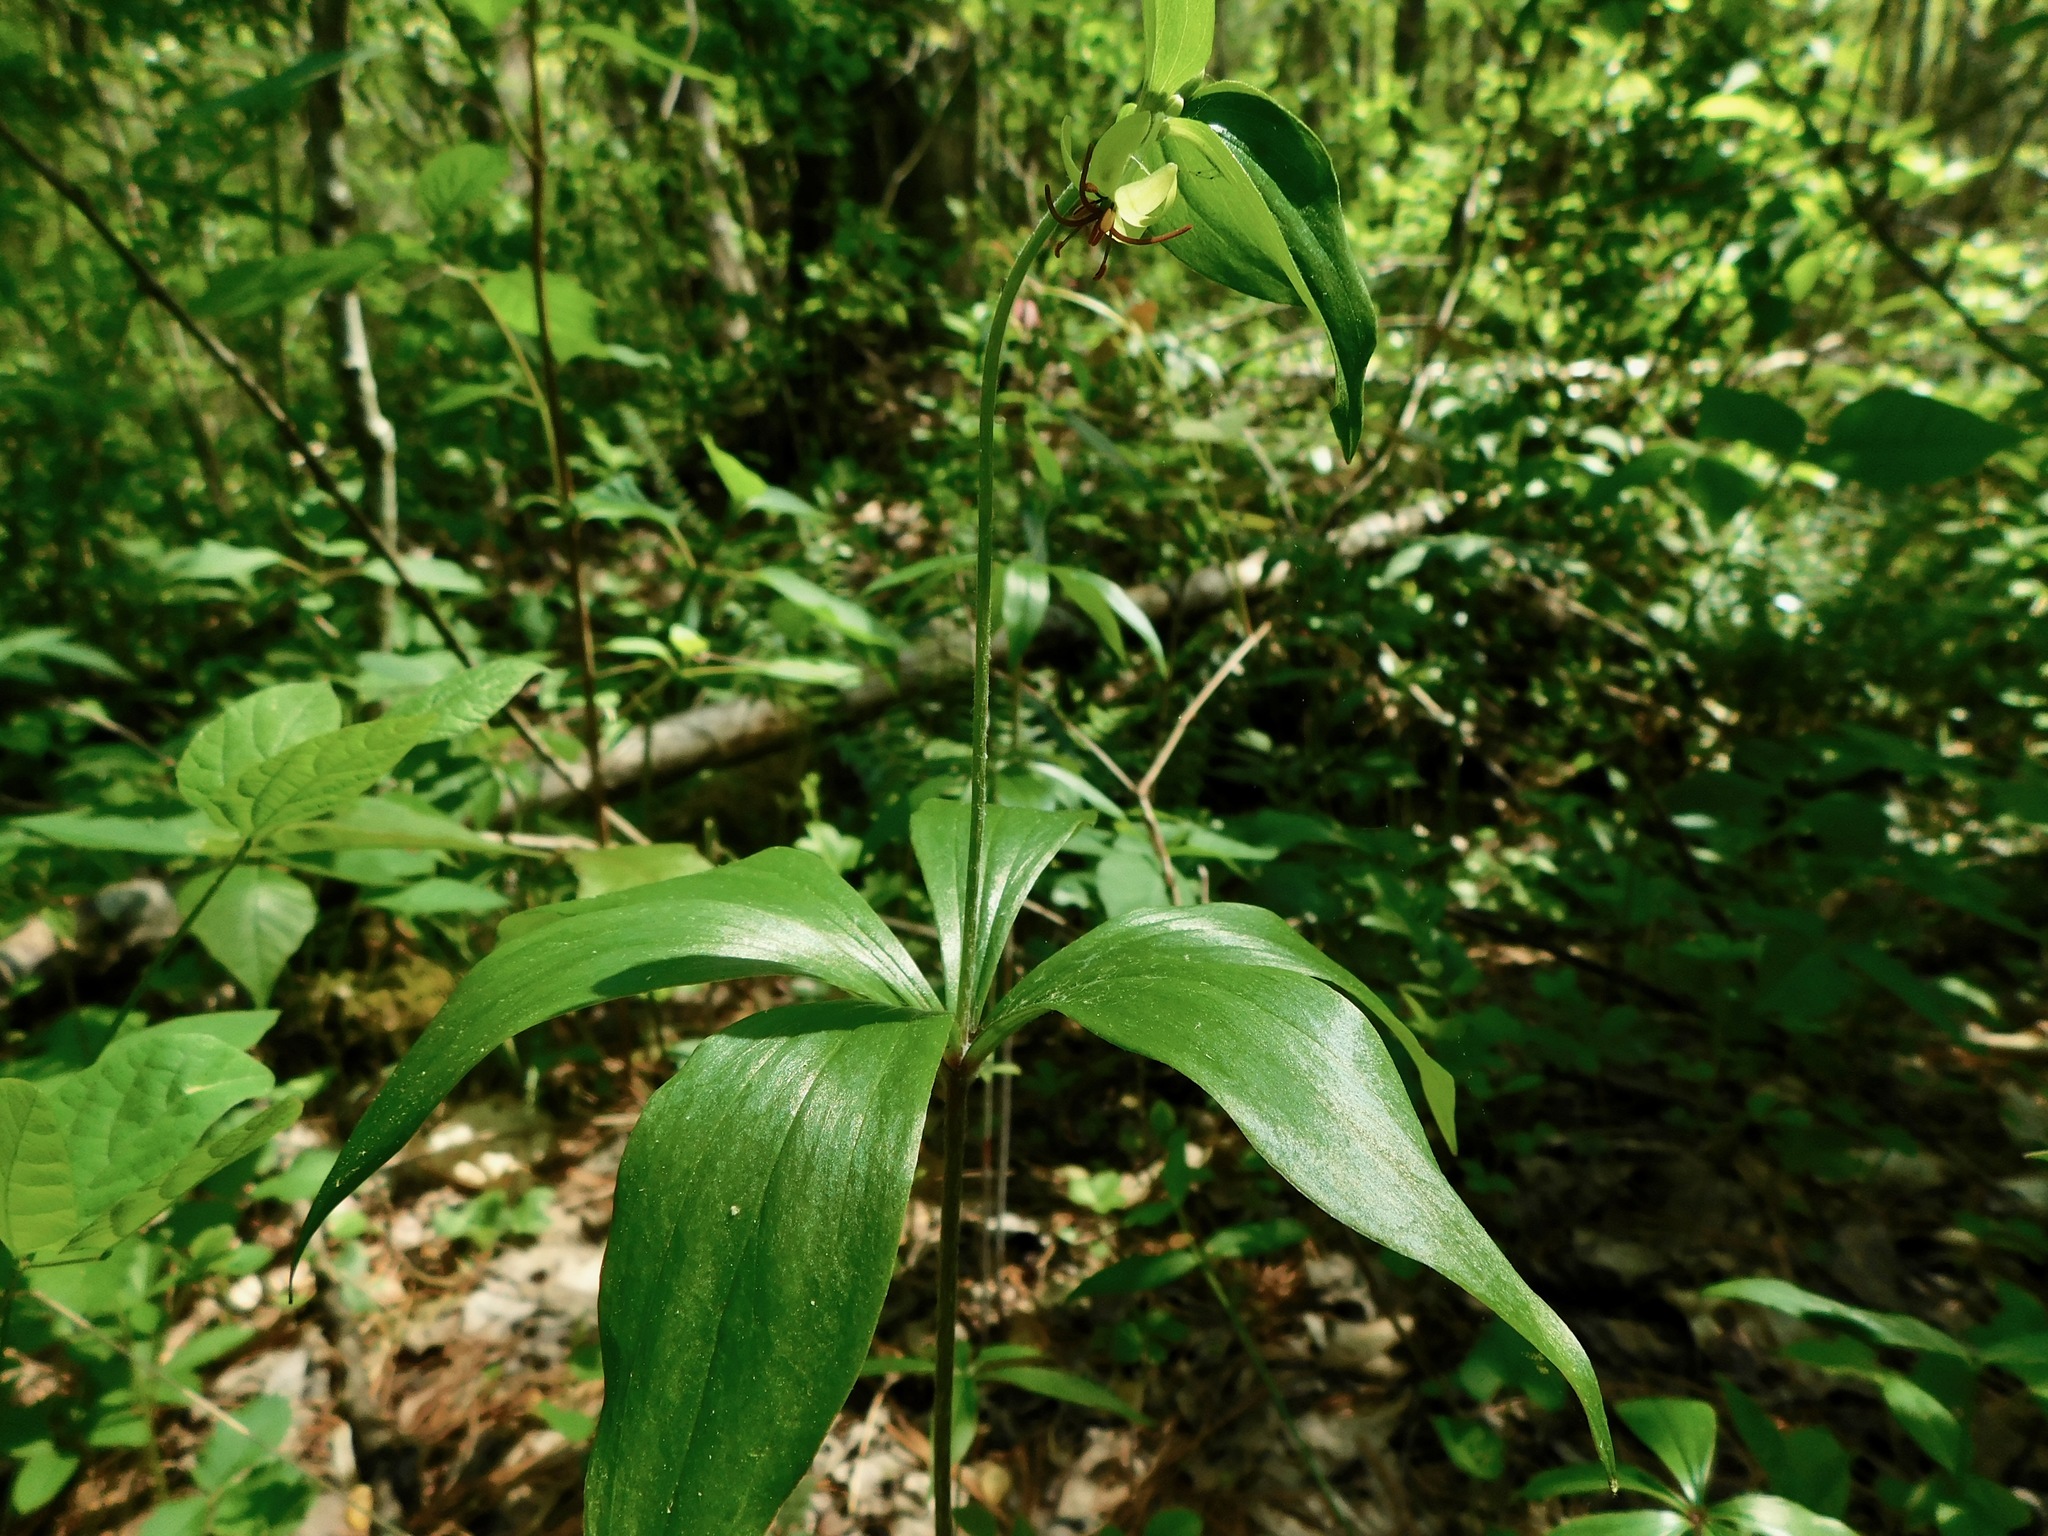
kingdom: Plantae
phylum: Tracheophyta
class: Liliopsida
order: Liliales
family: Liliaceae
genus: Medeola
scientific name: Medeola virginiana
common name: Indian cucumber-root
